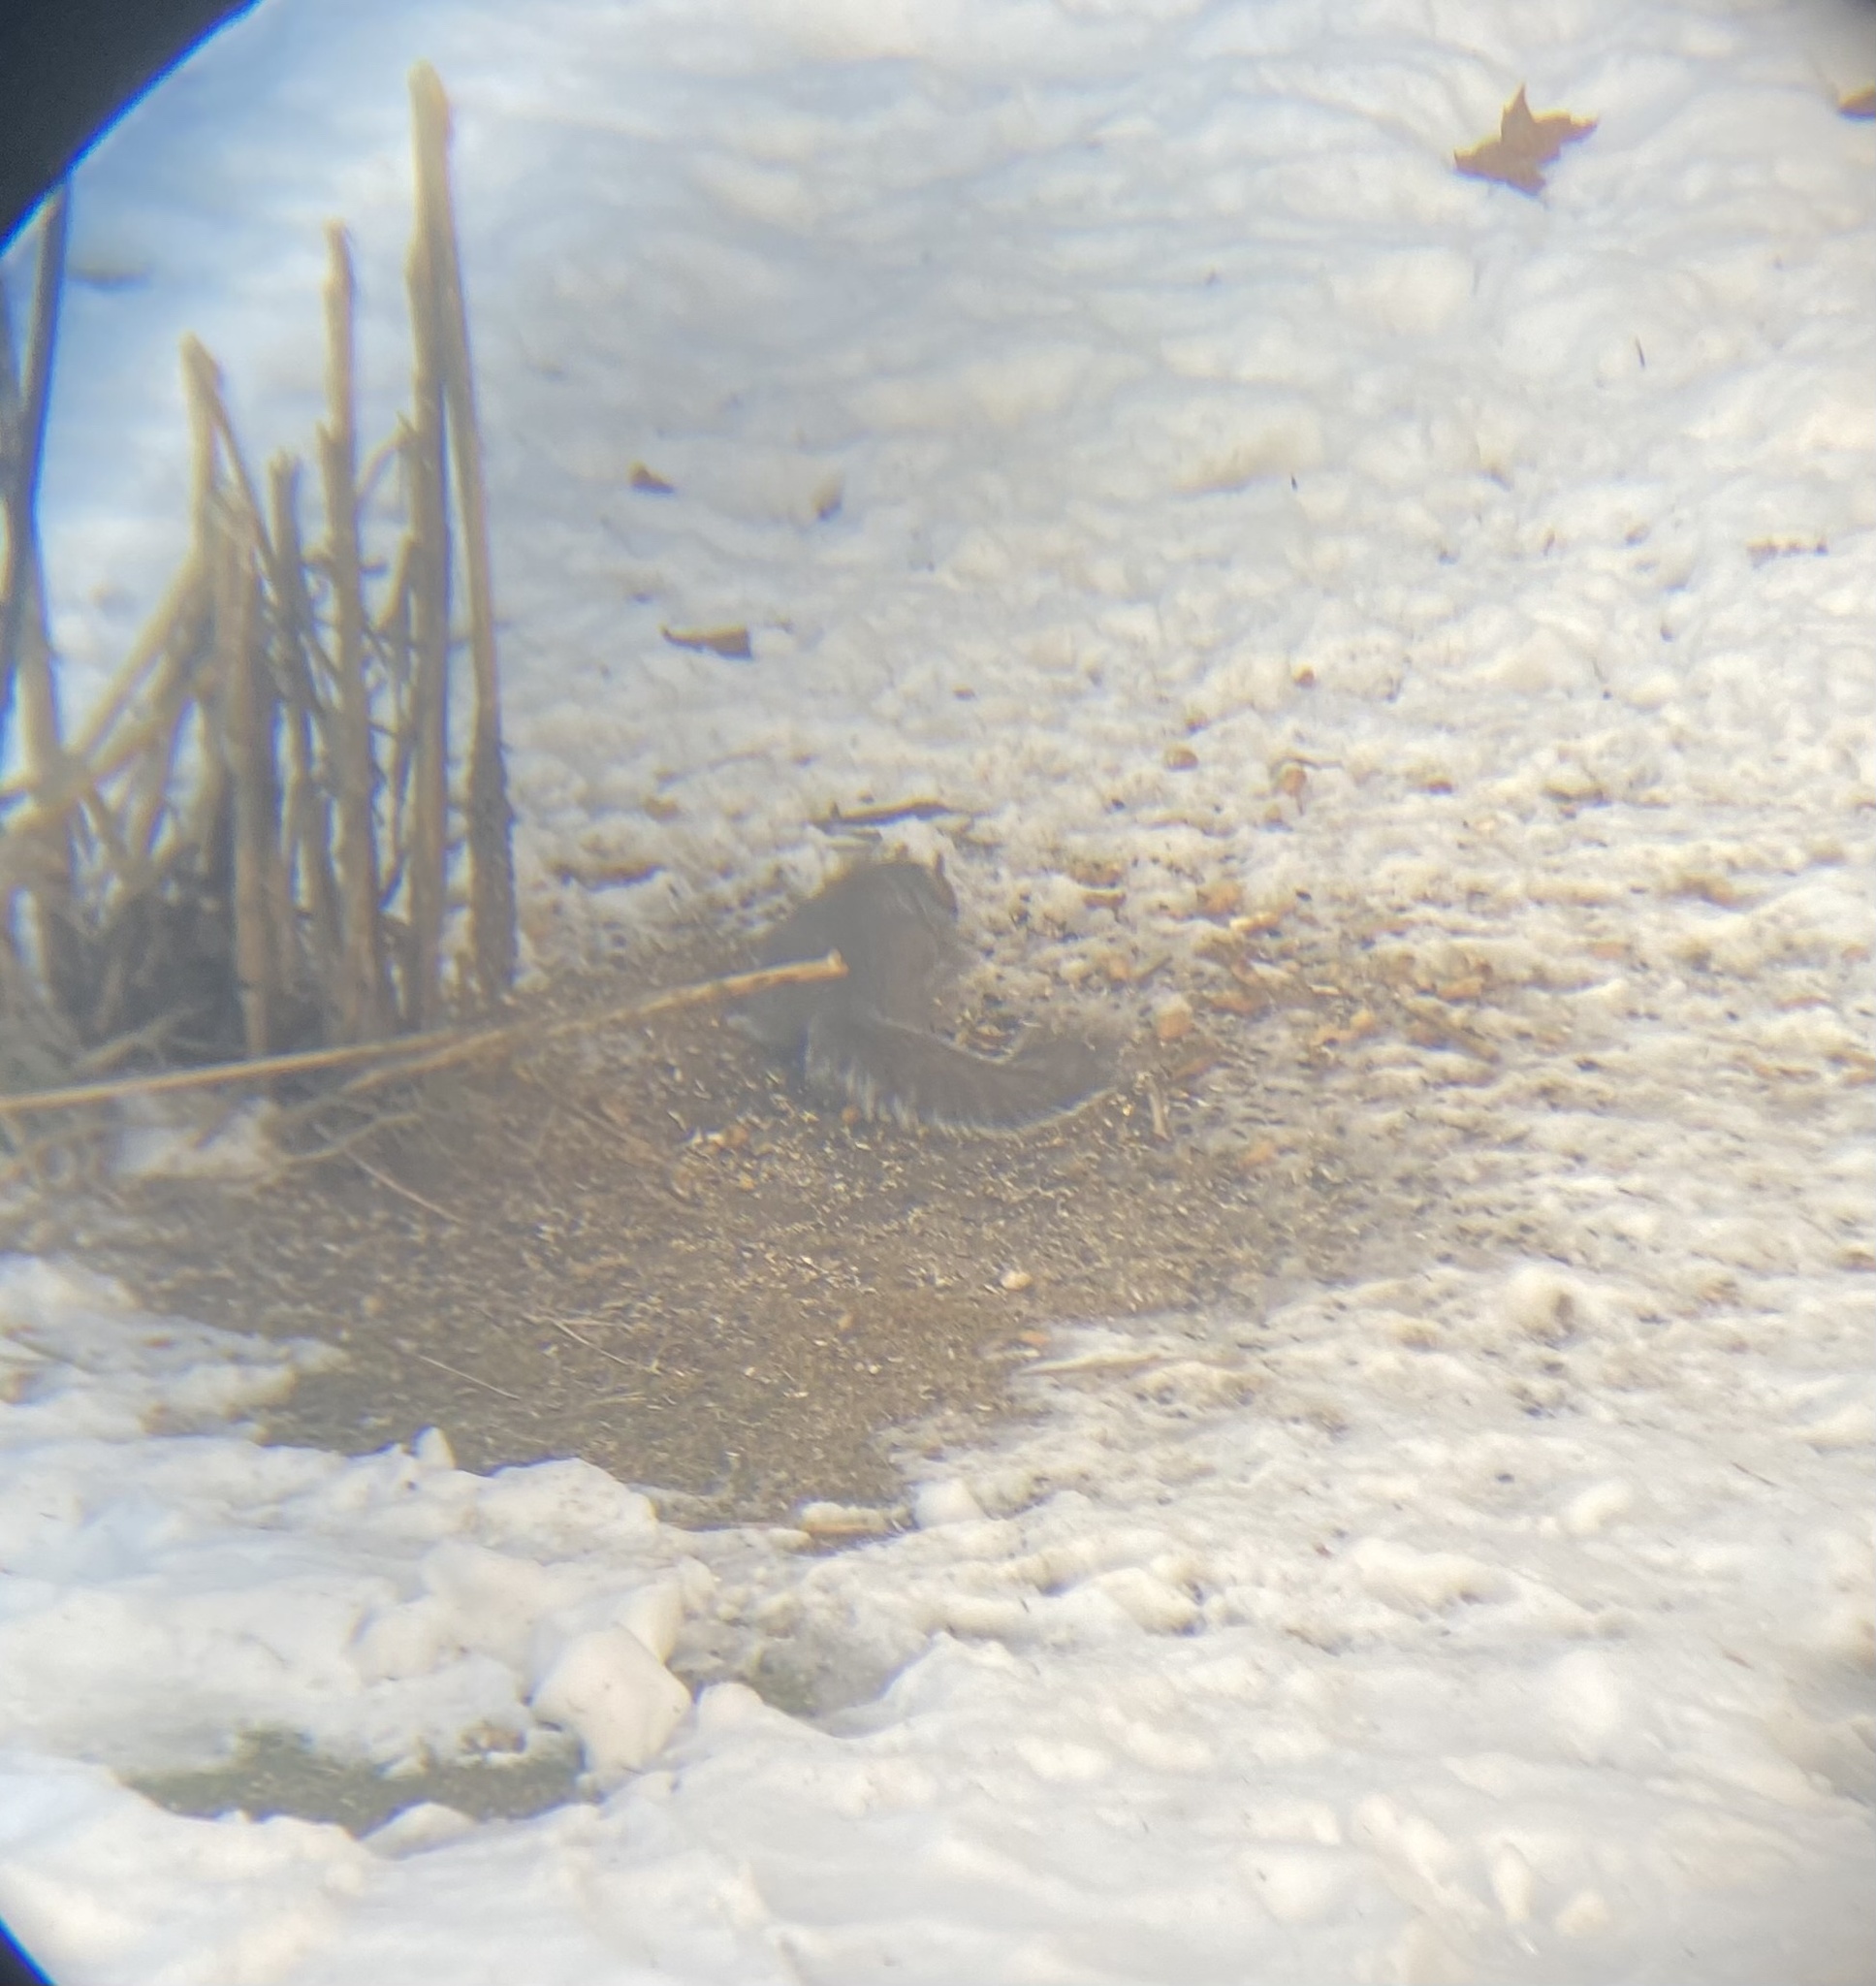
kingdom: Animalia
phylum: Chordata
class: Mammalia
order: Rodentia
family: Sciuridae
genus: Sciurus
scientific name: Sciurus carolinensis
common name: Eastern gray squirrel
